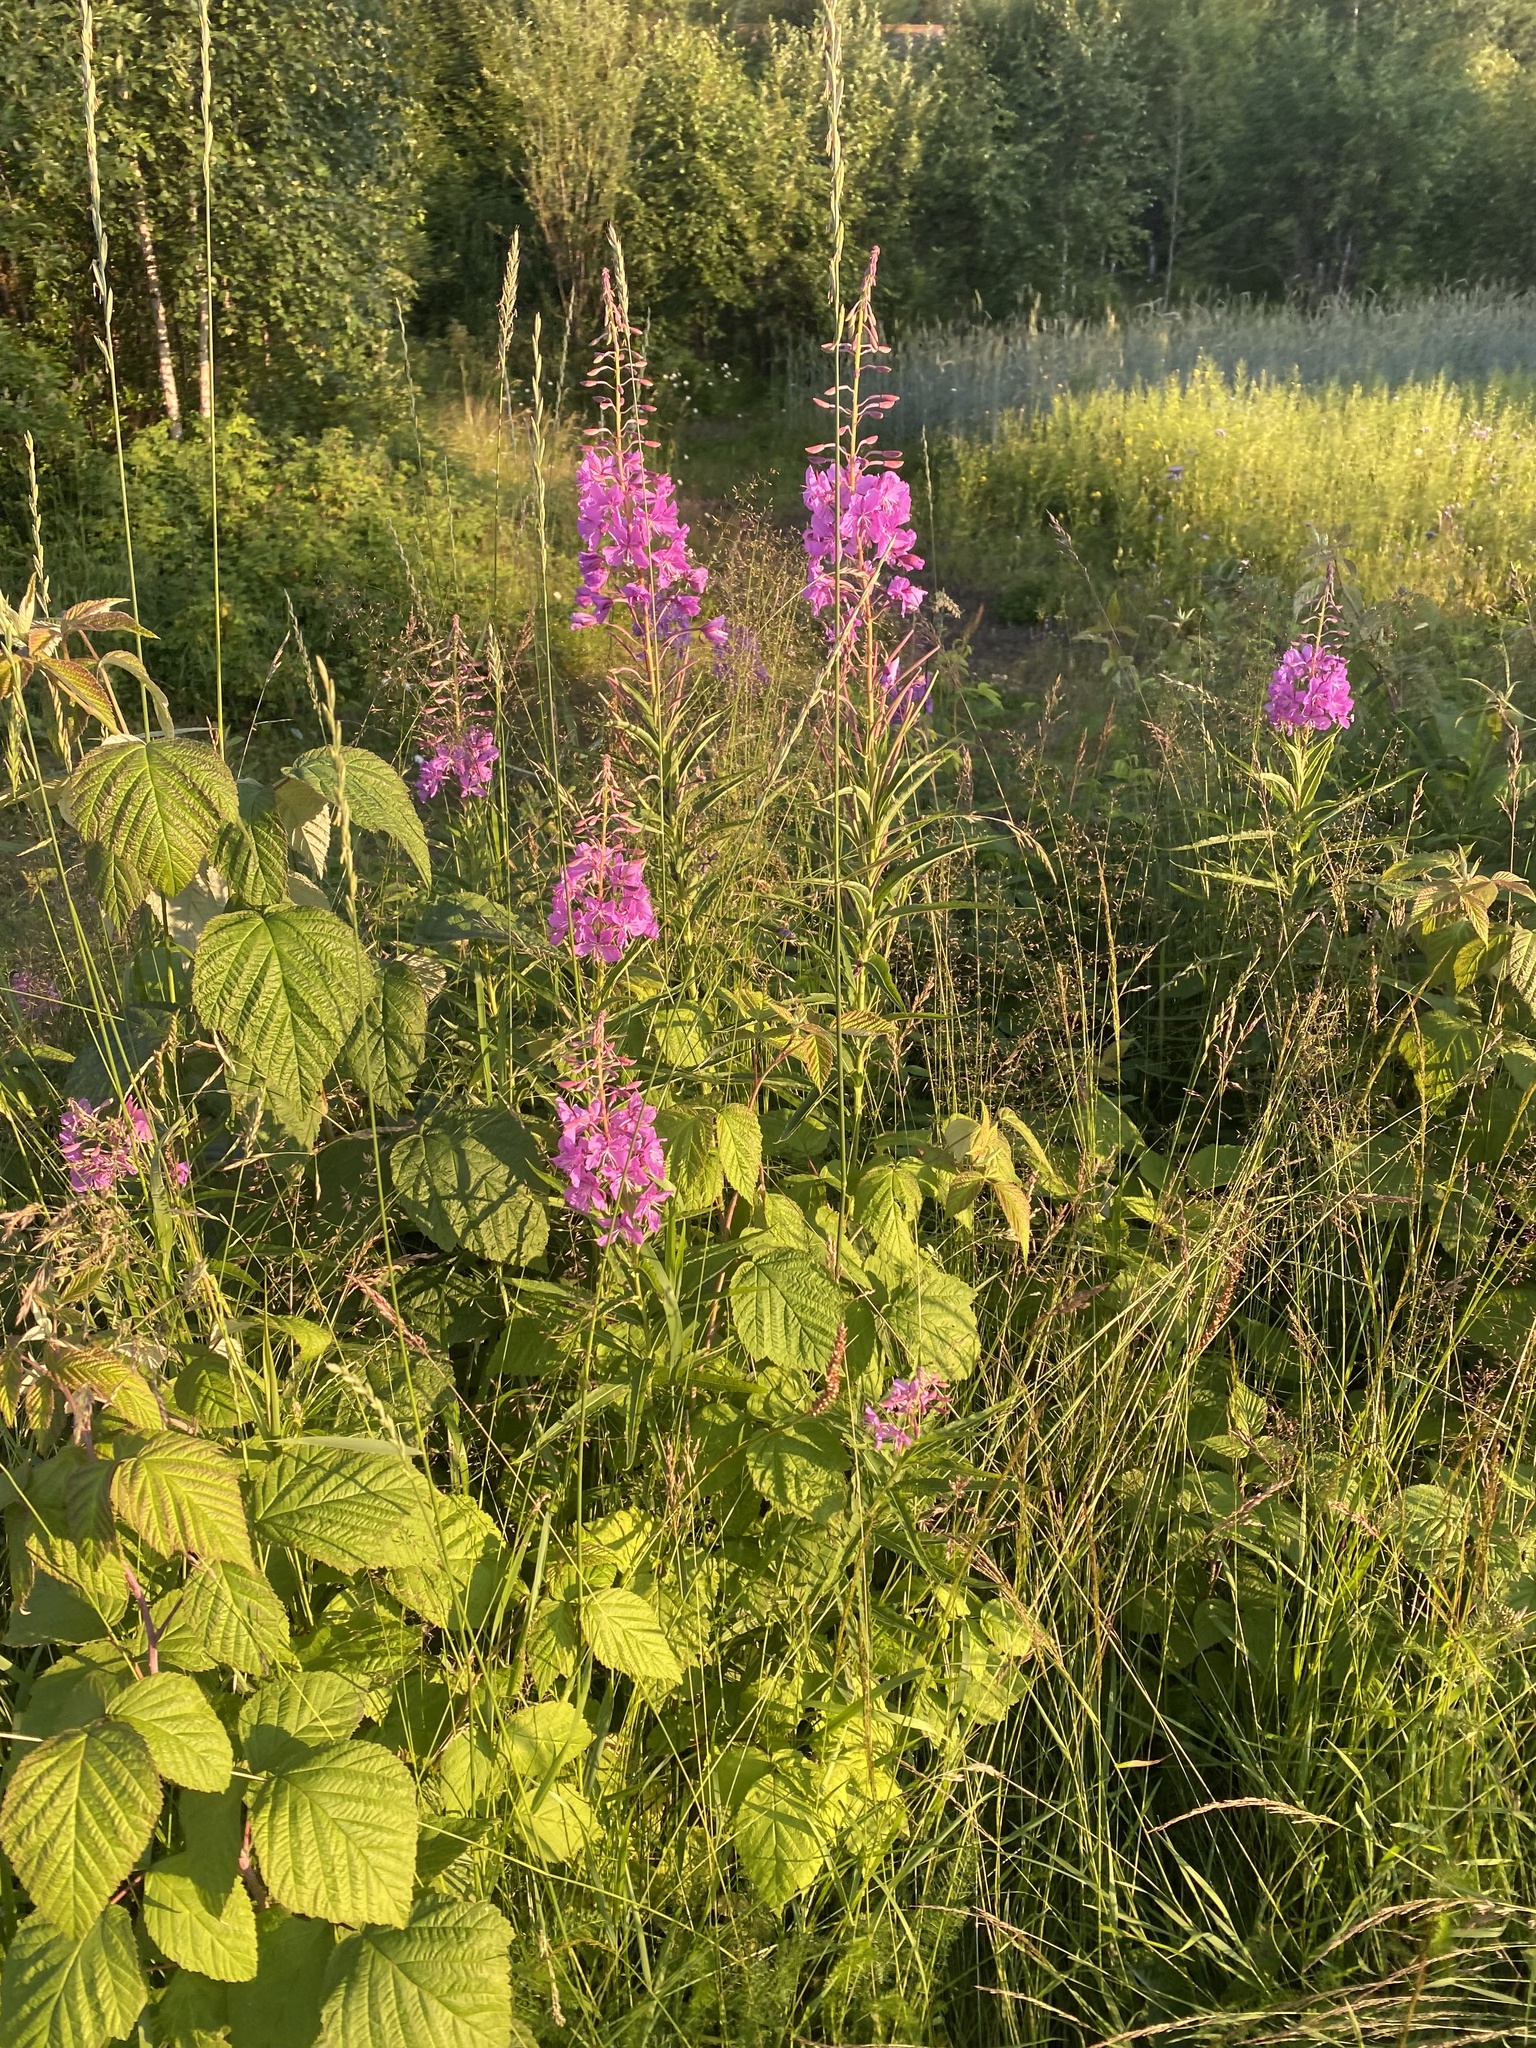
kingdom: Plantae
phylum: Tracheophyta
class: Magnoliopsida
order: Myrtales
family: Onagraceae
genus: Chamaenerion
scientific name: Chamaenerion angustifolium
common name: Fireweed
